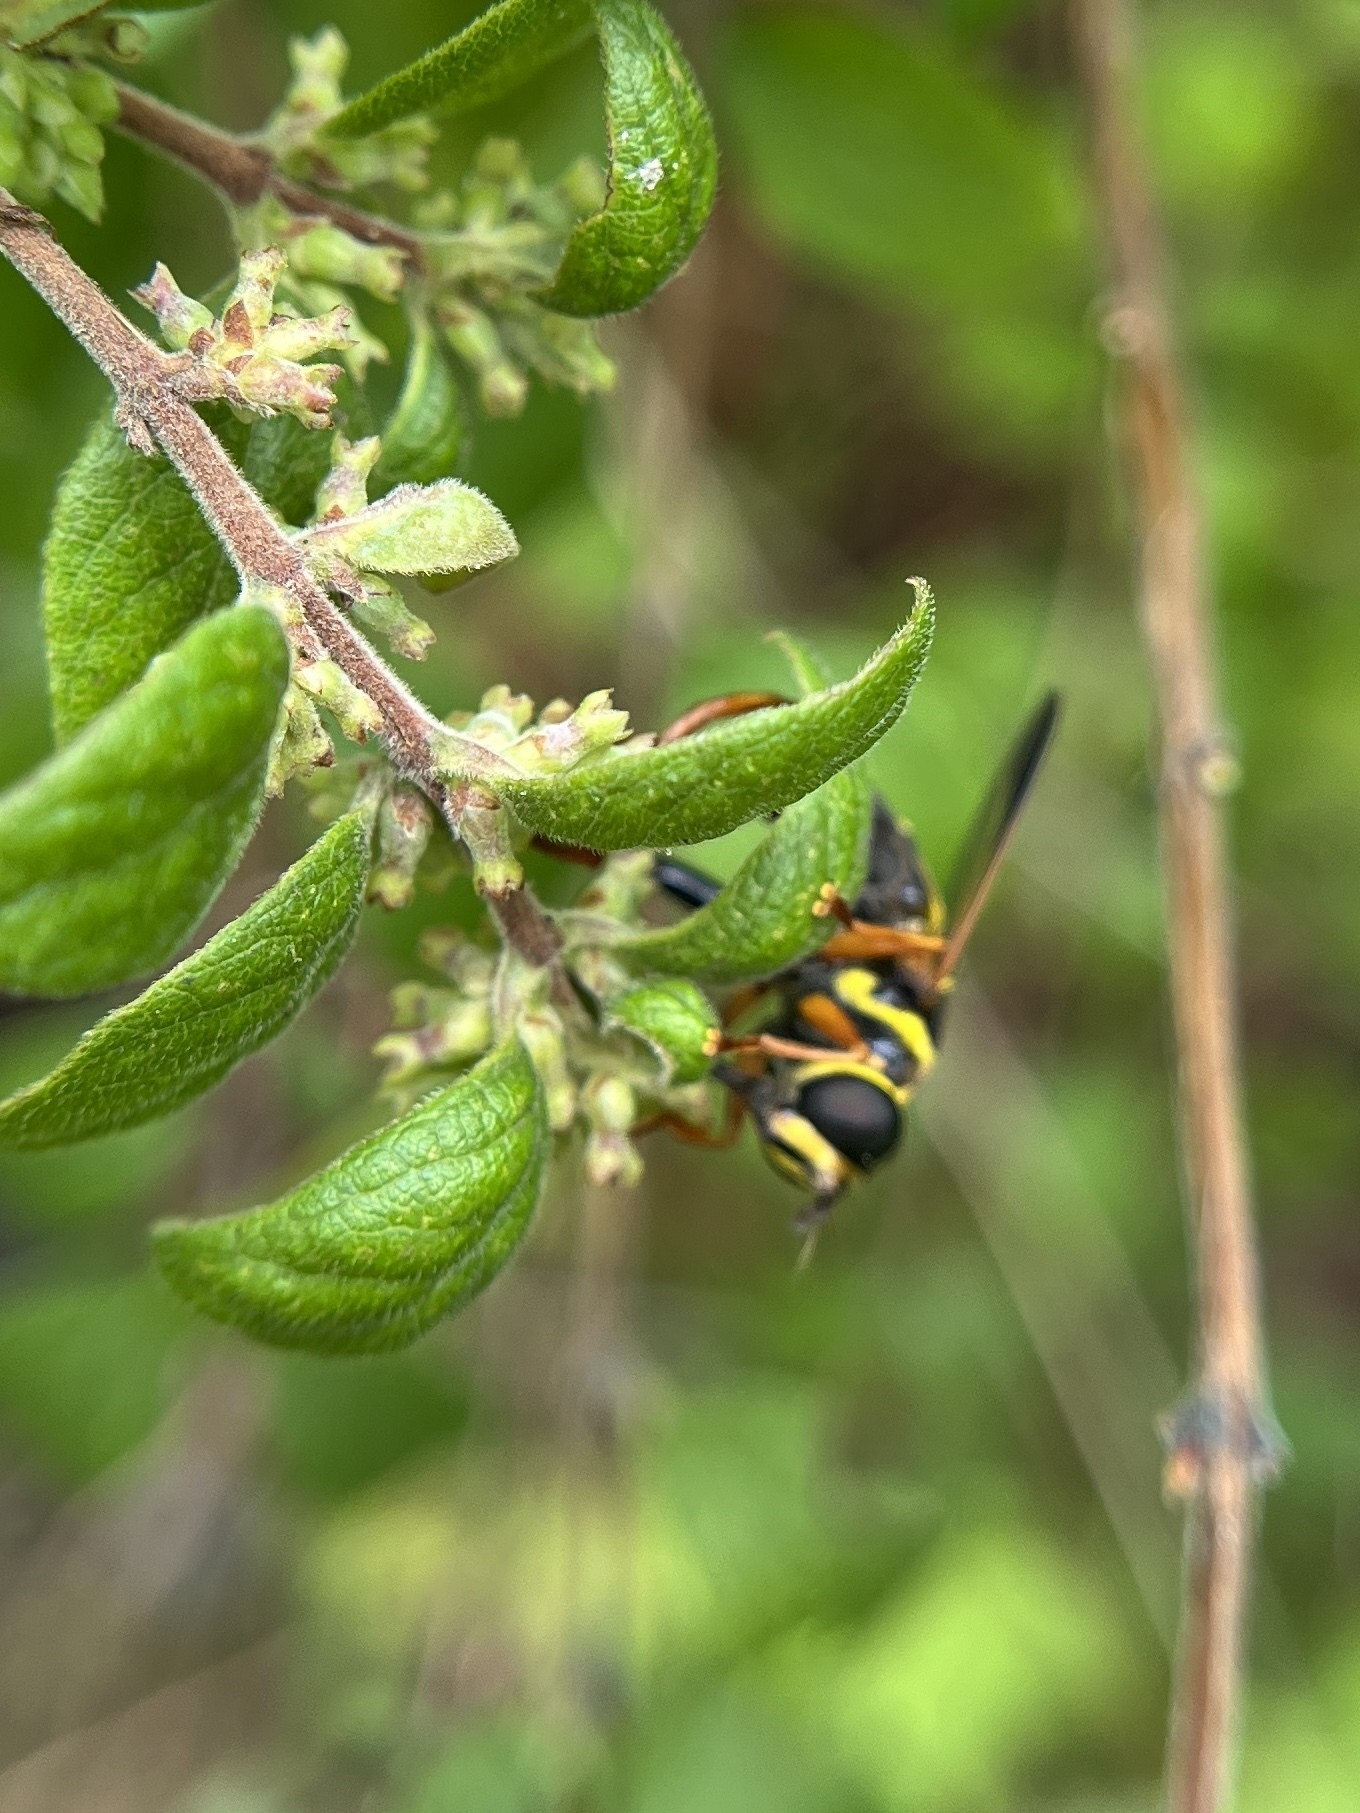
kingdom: Animalia
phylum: Arthropoda
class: Insecta
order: Diptera
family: Syrphidae
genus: Meromacrus
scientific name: Meromacrus acutus
